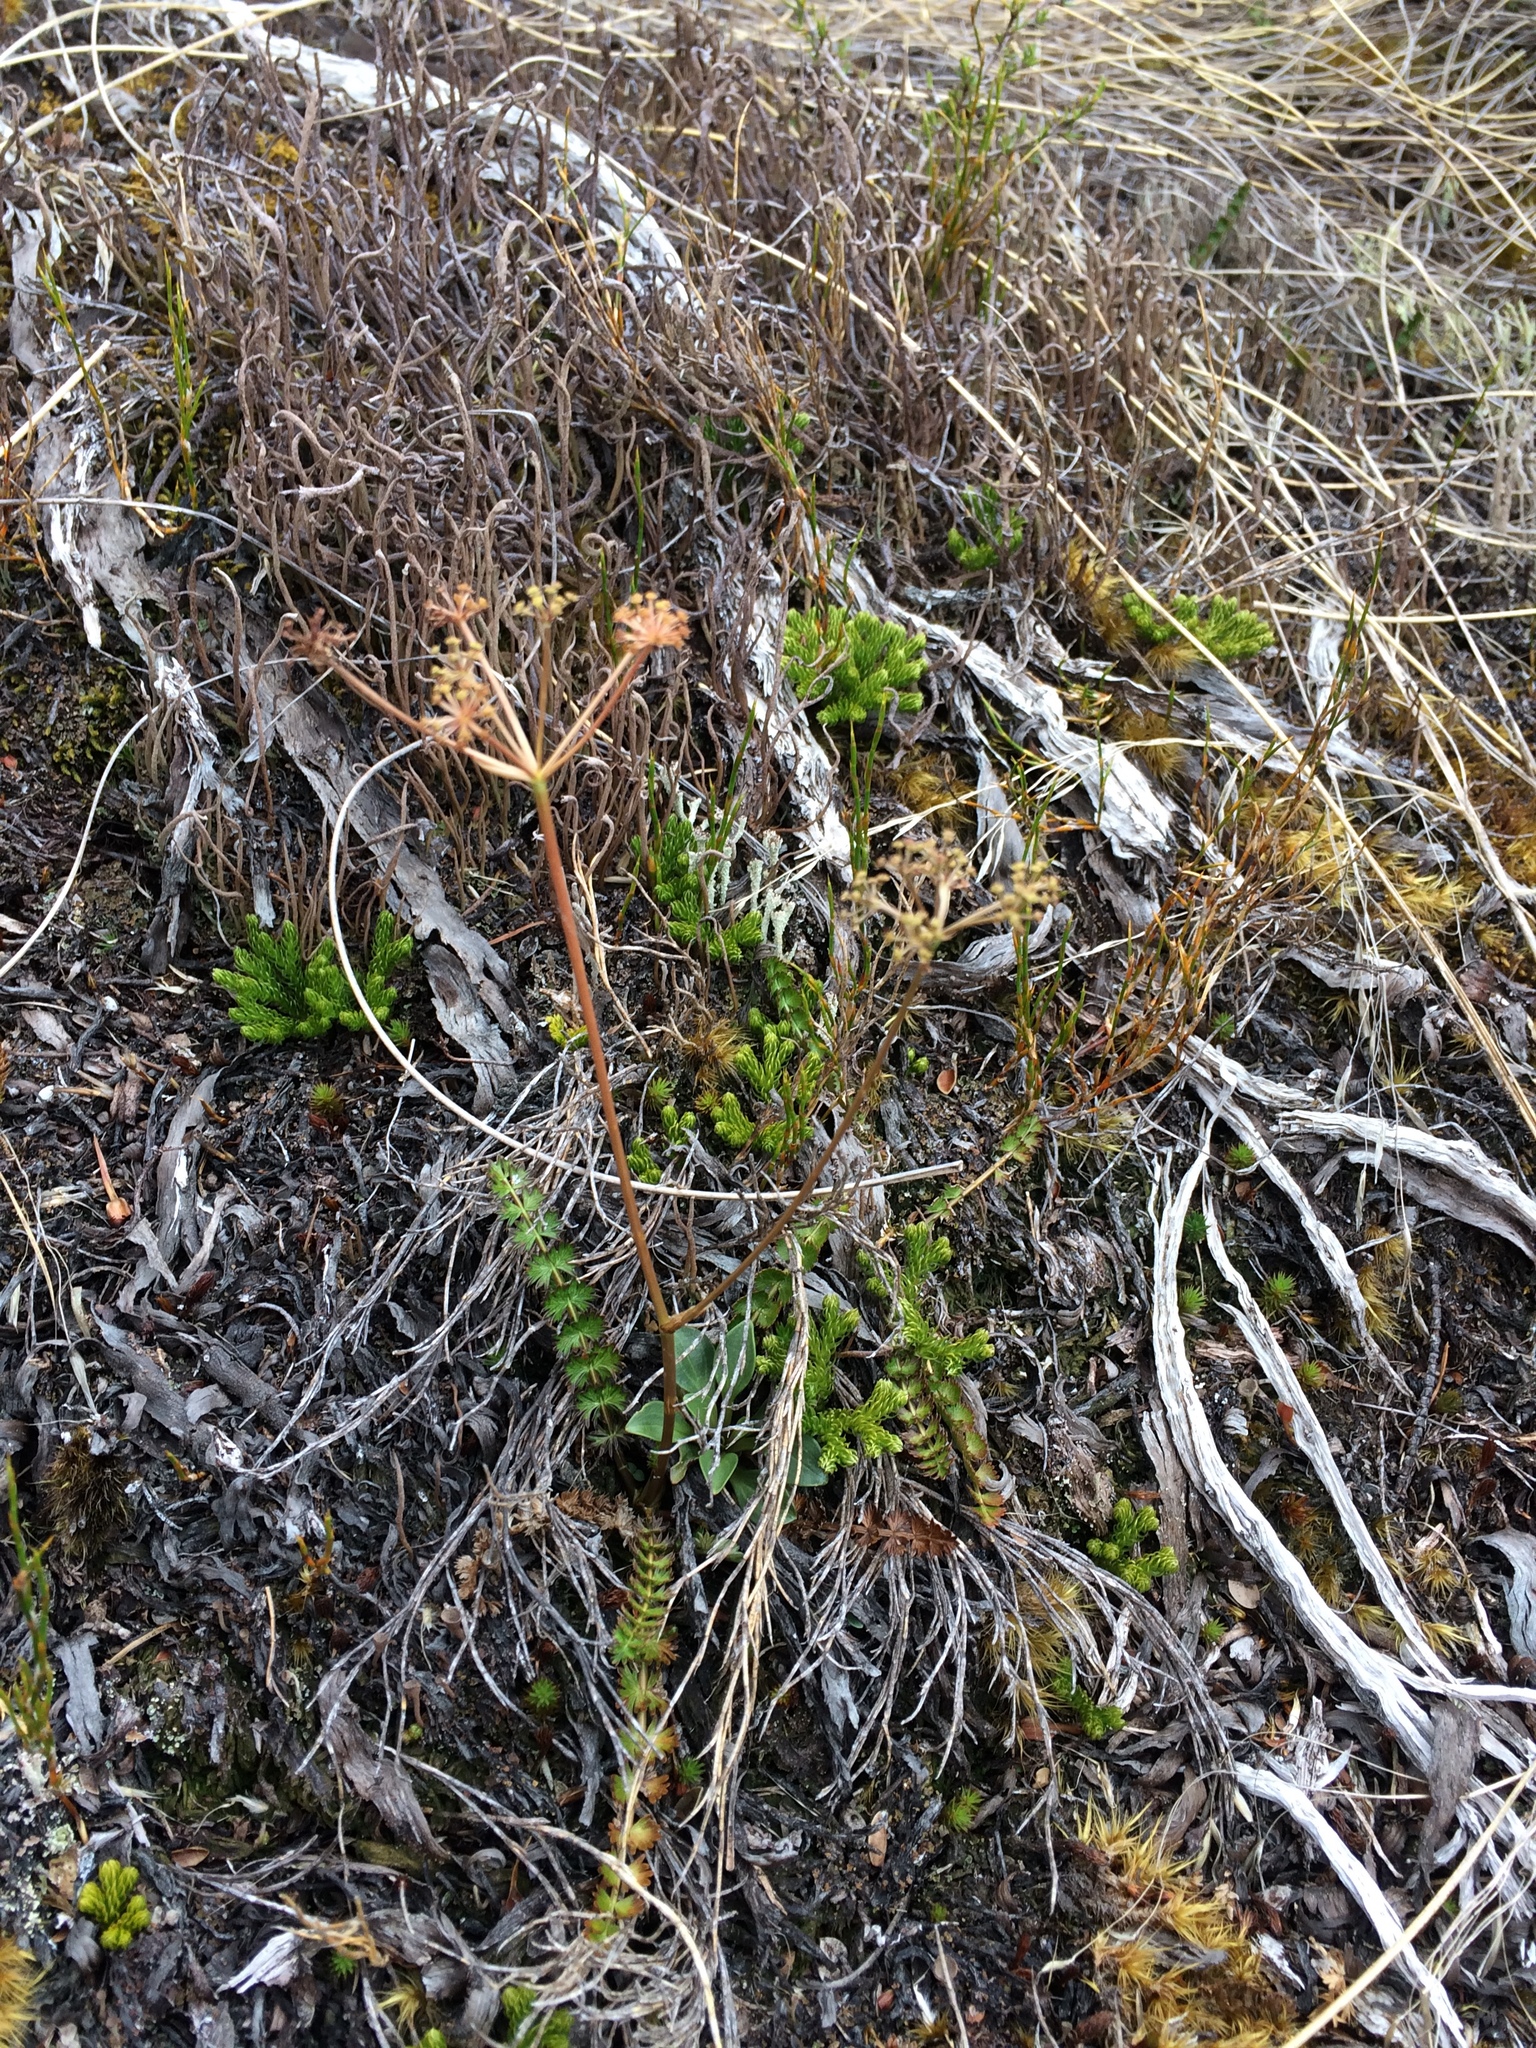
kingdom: Plantae
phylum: Tracheophyta
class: Magnoliopsida
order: Apiales
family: Apiaceae
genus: Anisotome
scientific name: Anisotome aromatica
